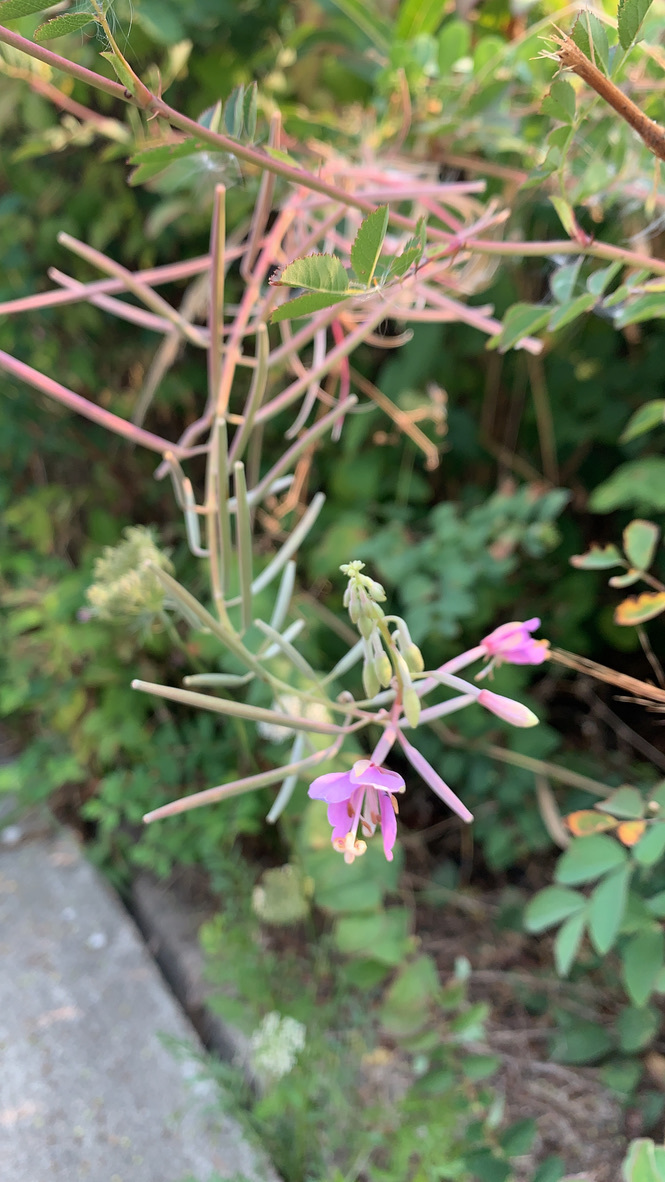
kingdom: Plantae
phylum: Tracheophyta
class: Magnoliopsida
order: Myrtales
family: Onagraceae
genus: Chamaenerion
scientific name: Chamaenerion angustifolium
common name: Fireweed
